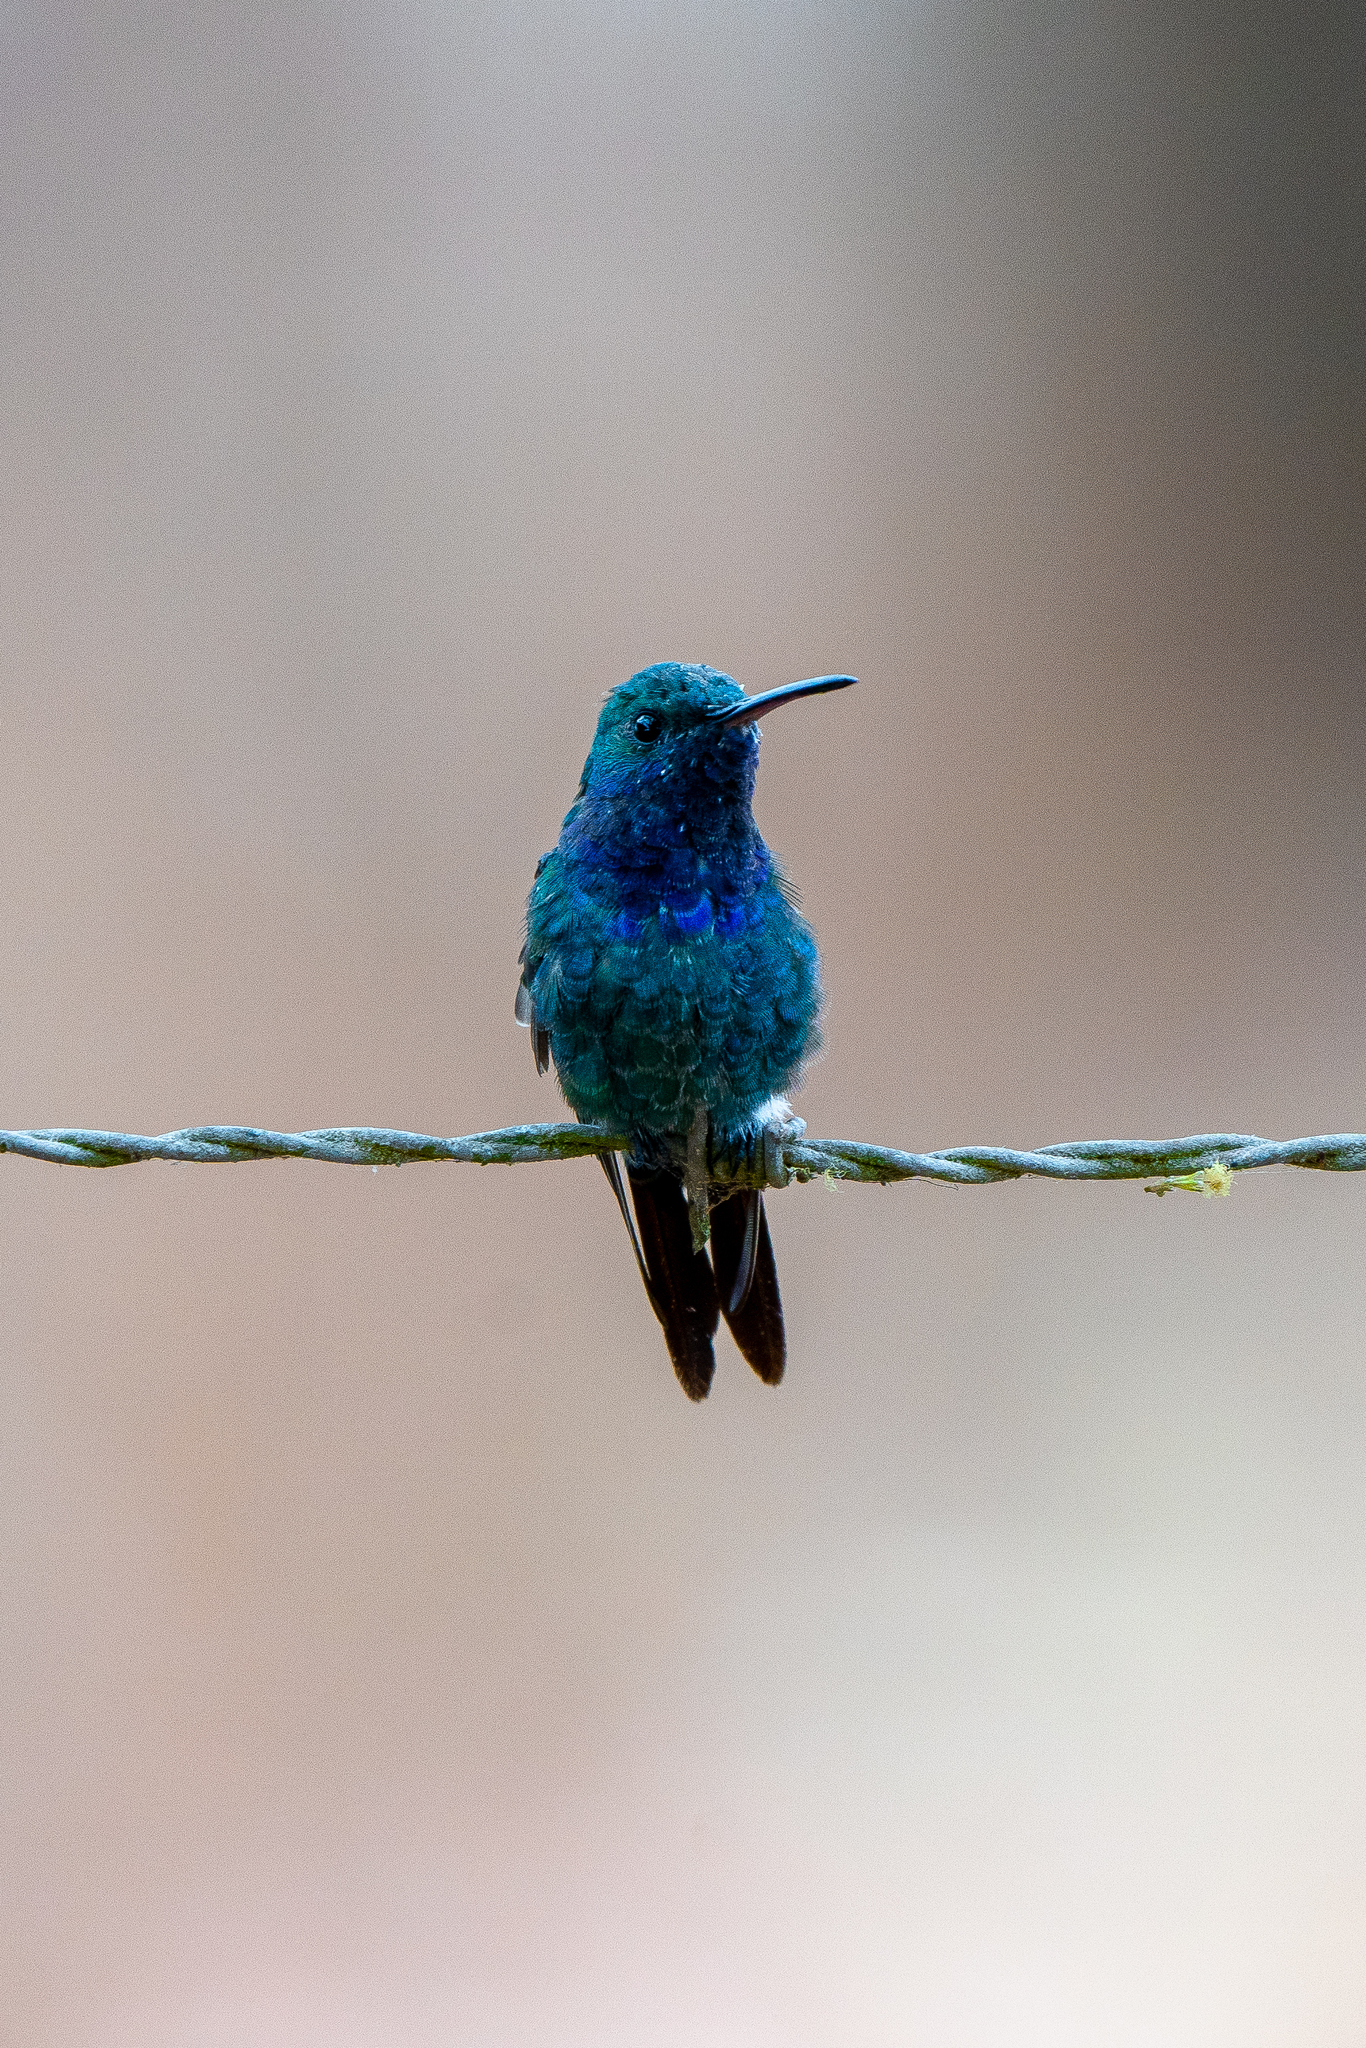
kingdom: Animalia
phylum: Chordata
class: Aves
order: Apodiformes
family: Trochilidae
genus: Chrysuronia
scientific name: Chrysuronia coeruleogularis
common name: Sapphire-throated hummingbird
